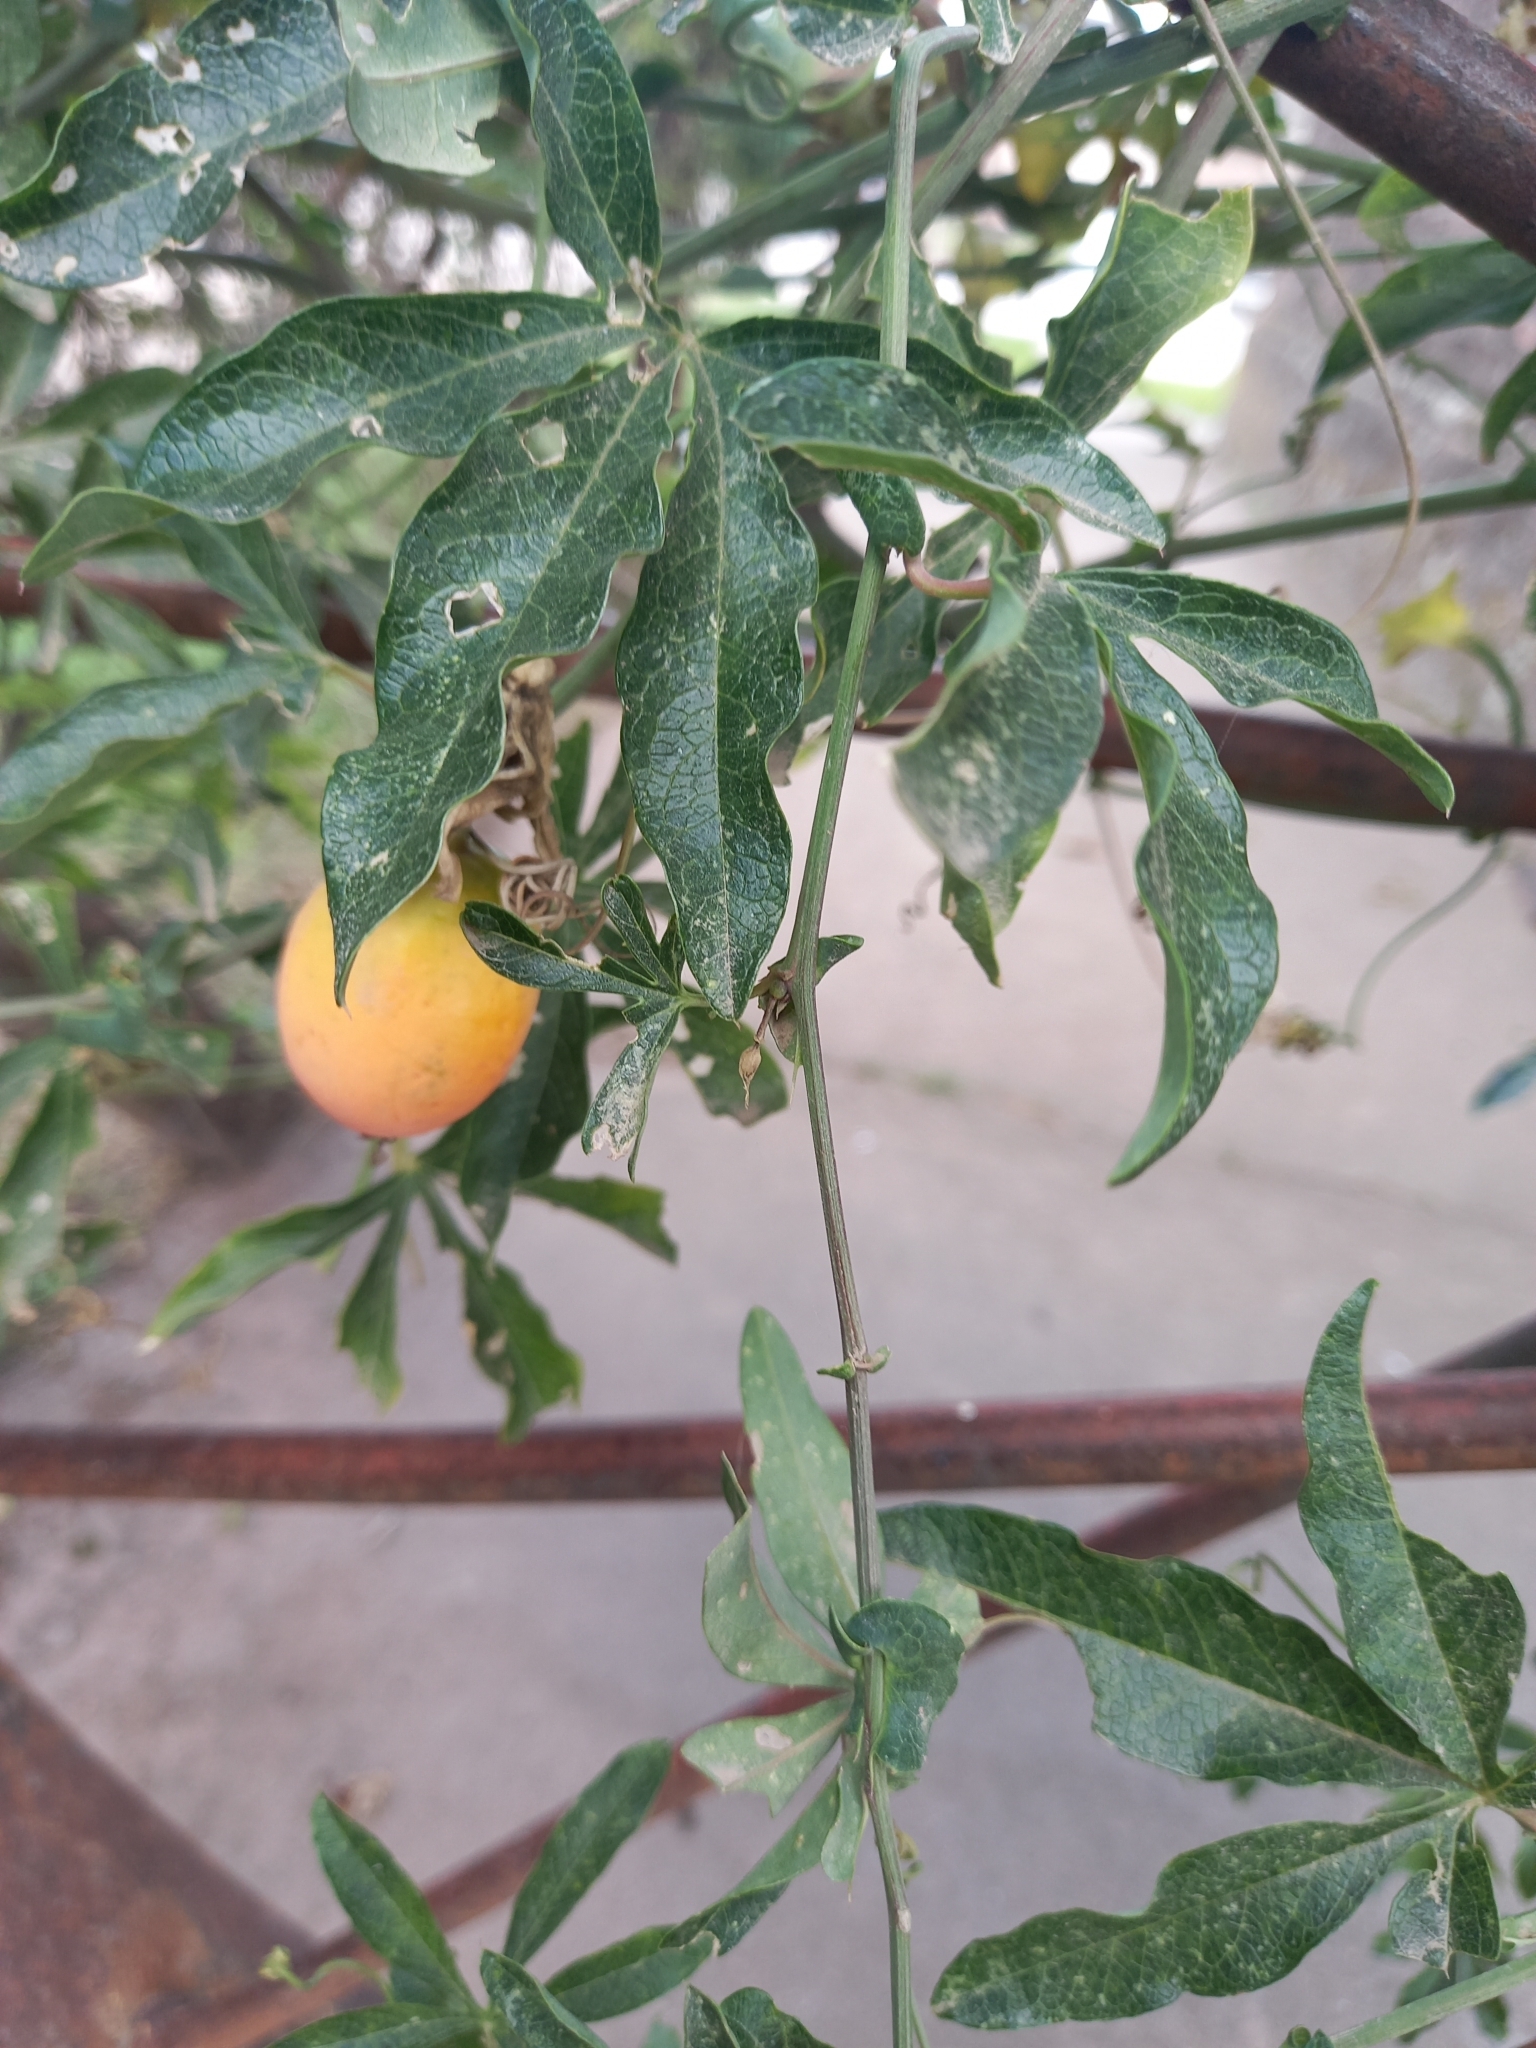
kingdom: Plantae
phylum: Tracheophyta
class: Magnoliopsida
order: Malpighiales
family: Passifloraceae
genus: Passiflora
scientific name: Passiflora caerulea
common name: Blue passionflower
